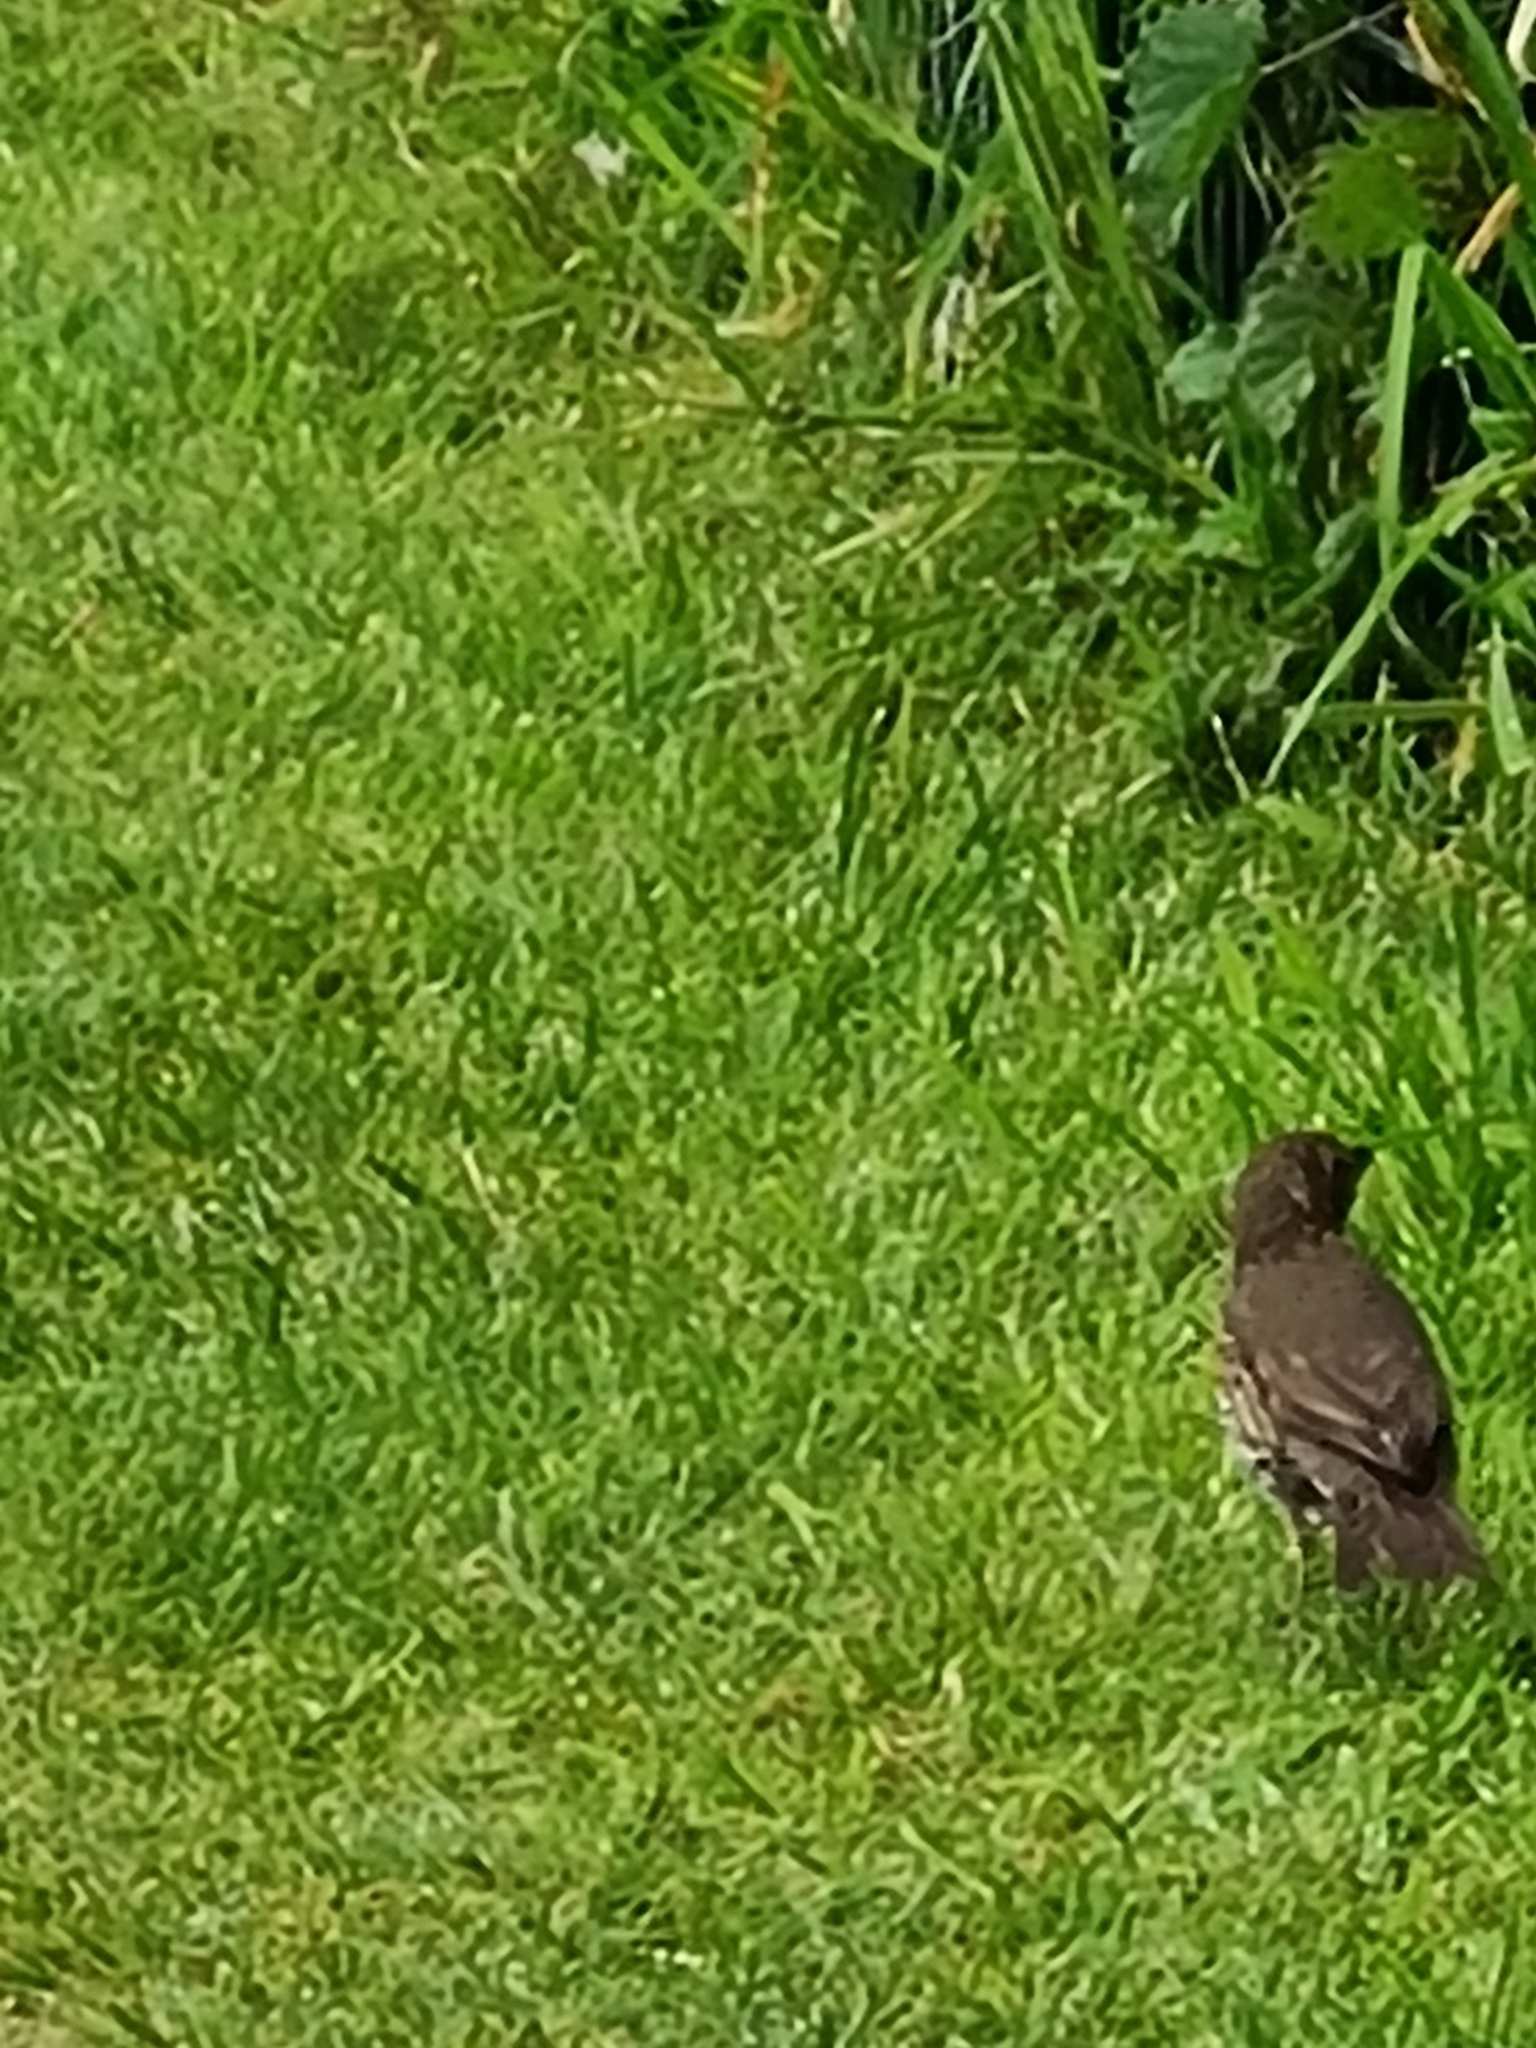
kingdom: Animalia
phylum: Chordata
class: Aves
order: Passeriformes
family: Turdidae
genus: Turdus
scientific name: Turdus philomelos
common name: Song thrush
